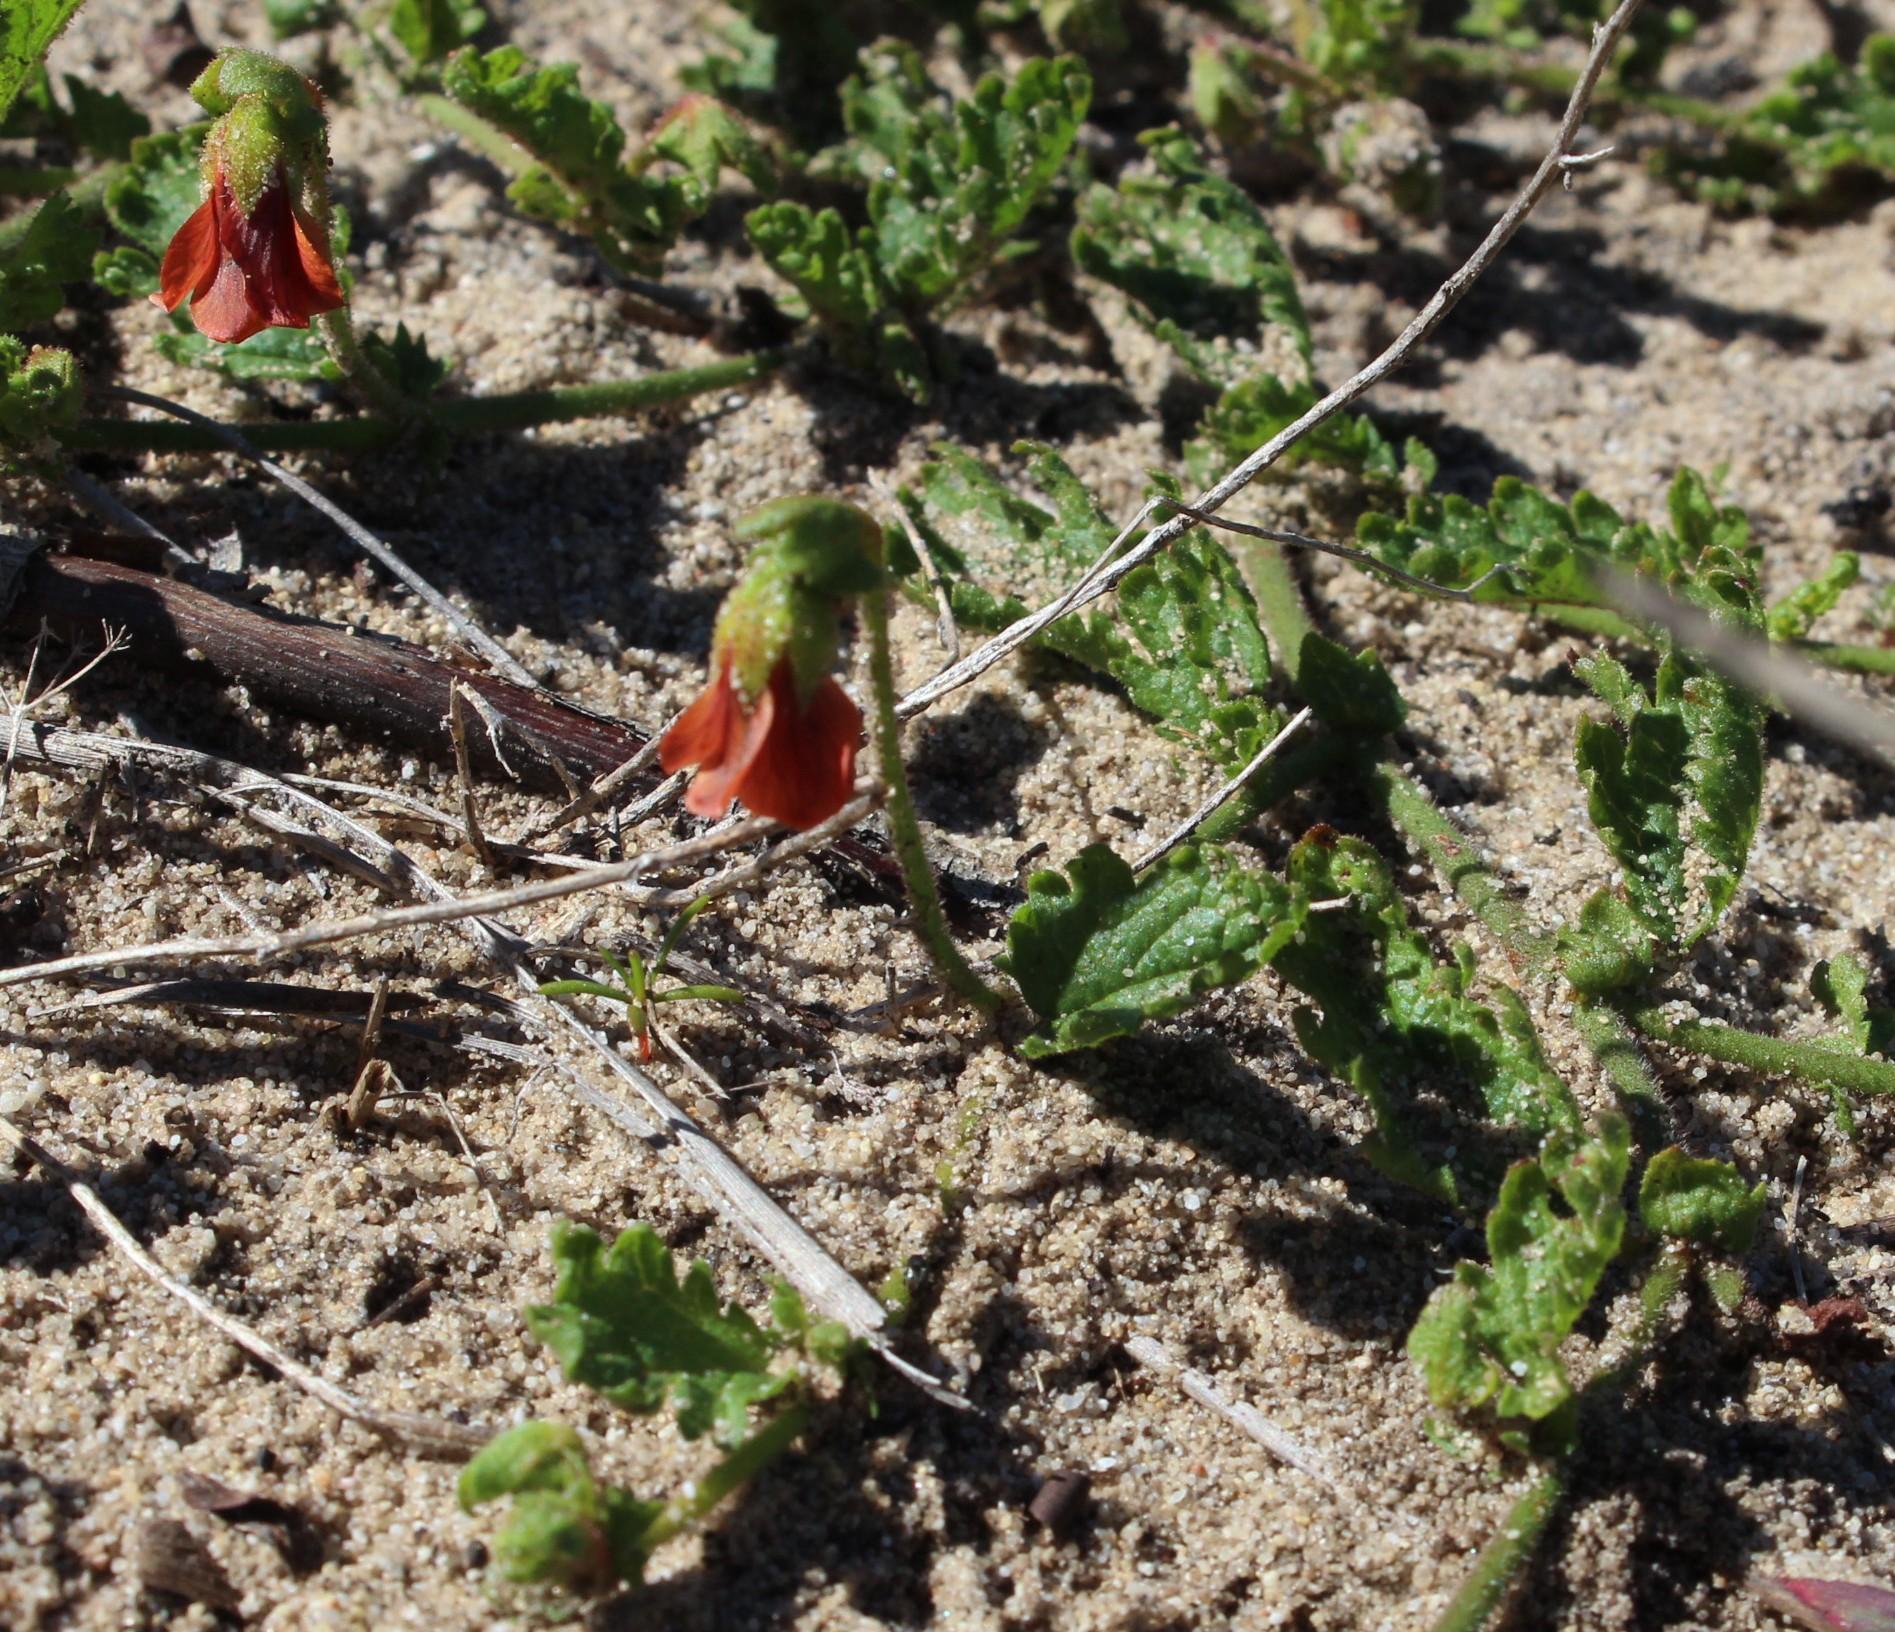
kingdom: Plantae
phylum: Tracheophyta
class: Magnoliopsida
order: Malvales
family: Malvaceae
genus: Hermannia
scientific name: Hermannia scabricaulis
